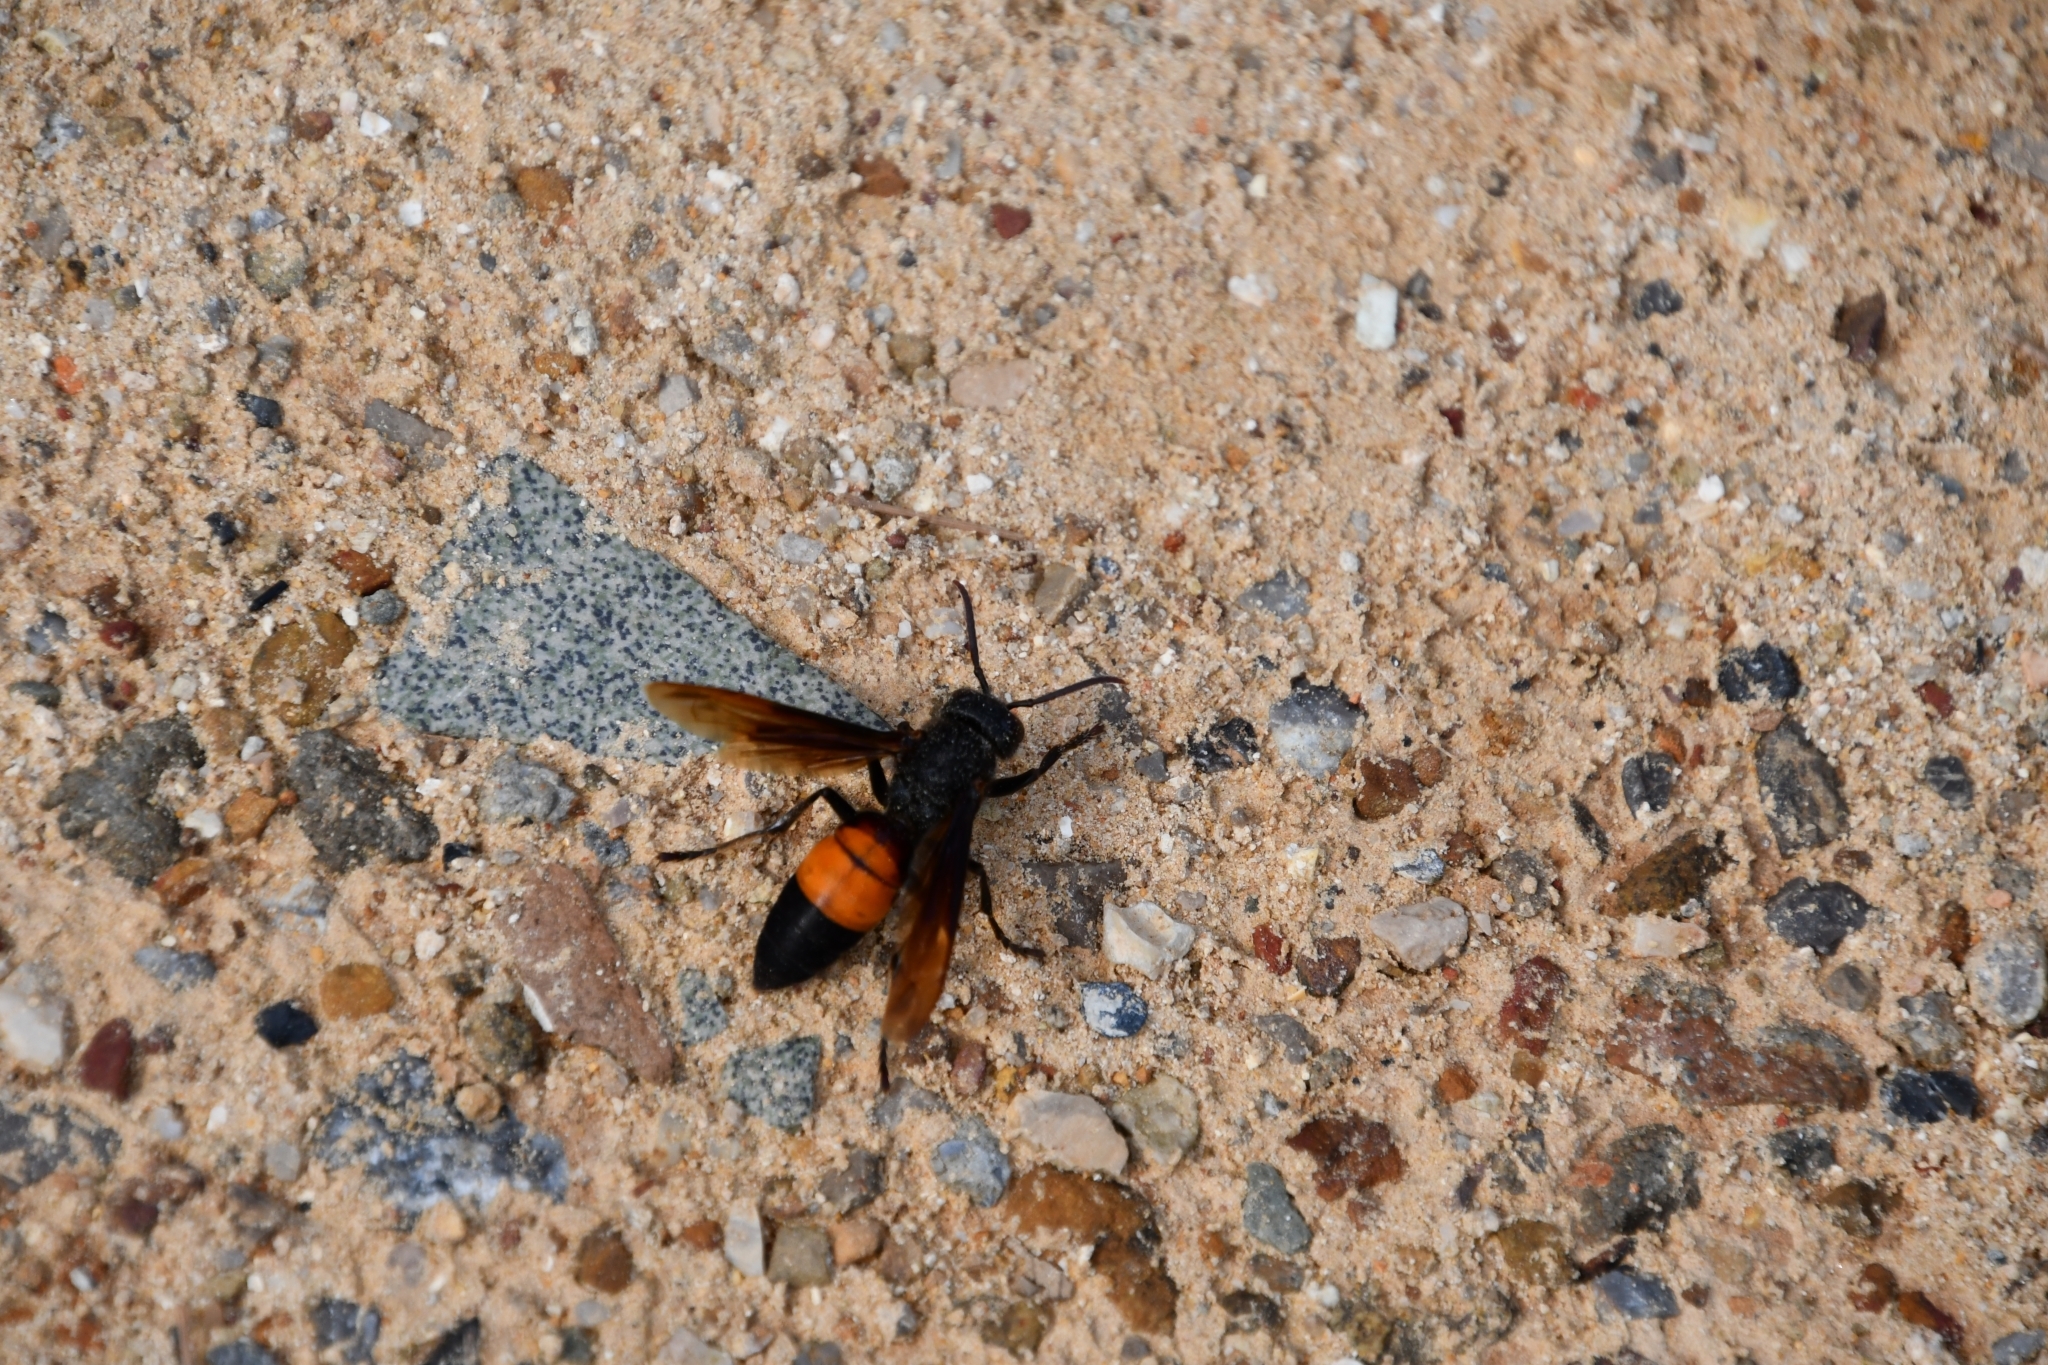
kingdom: Animalia
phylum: Arthropoda
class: Insecta
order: Hymenoptera
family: Vespidae
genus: Vespa
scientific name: Vespa affinis
